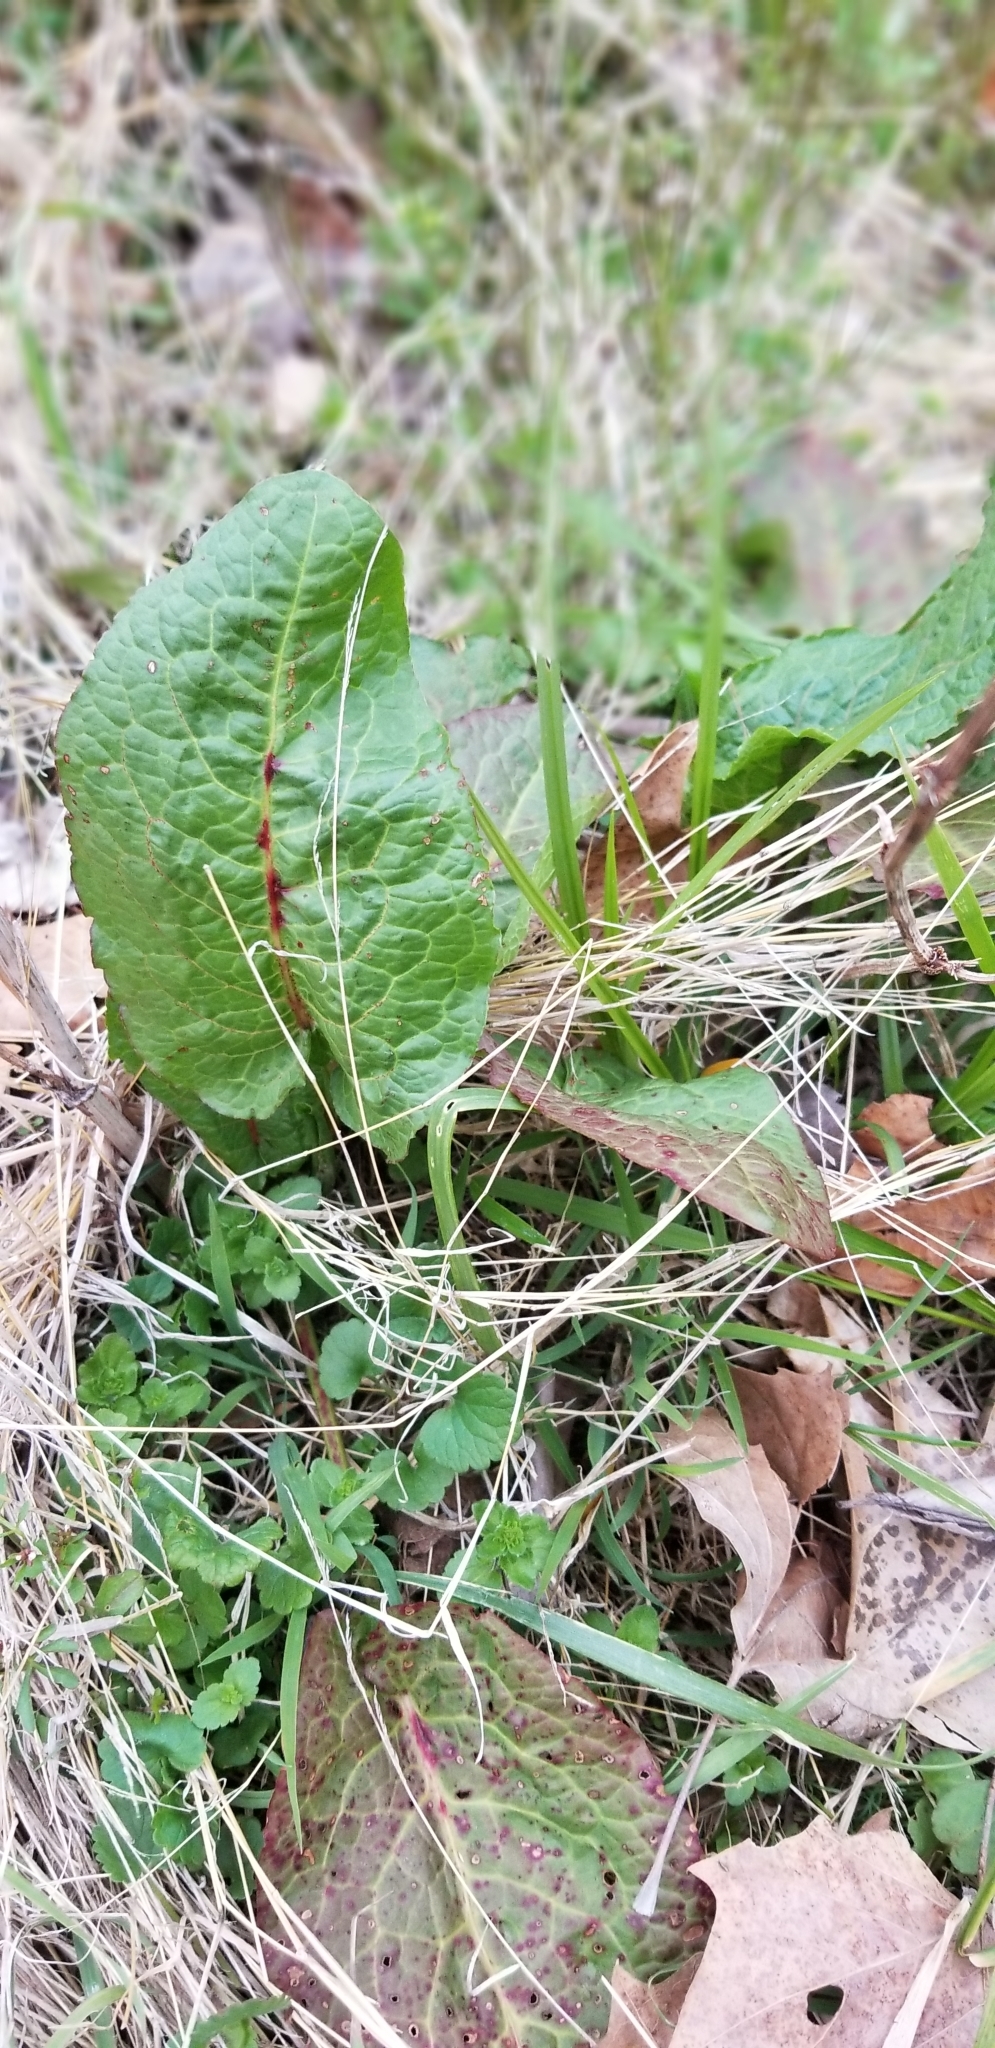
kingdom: Plantae
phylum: Tracheophyta
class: Magnoliopsida
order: Caryophyllales
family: Polygonaceae
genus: Rumex
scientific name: Rumex obtusifolius
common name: Bitter dock
